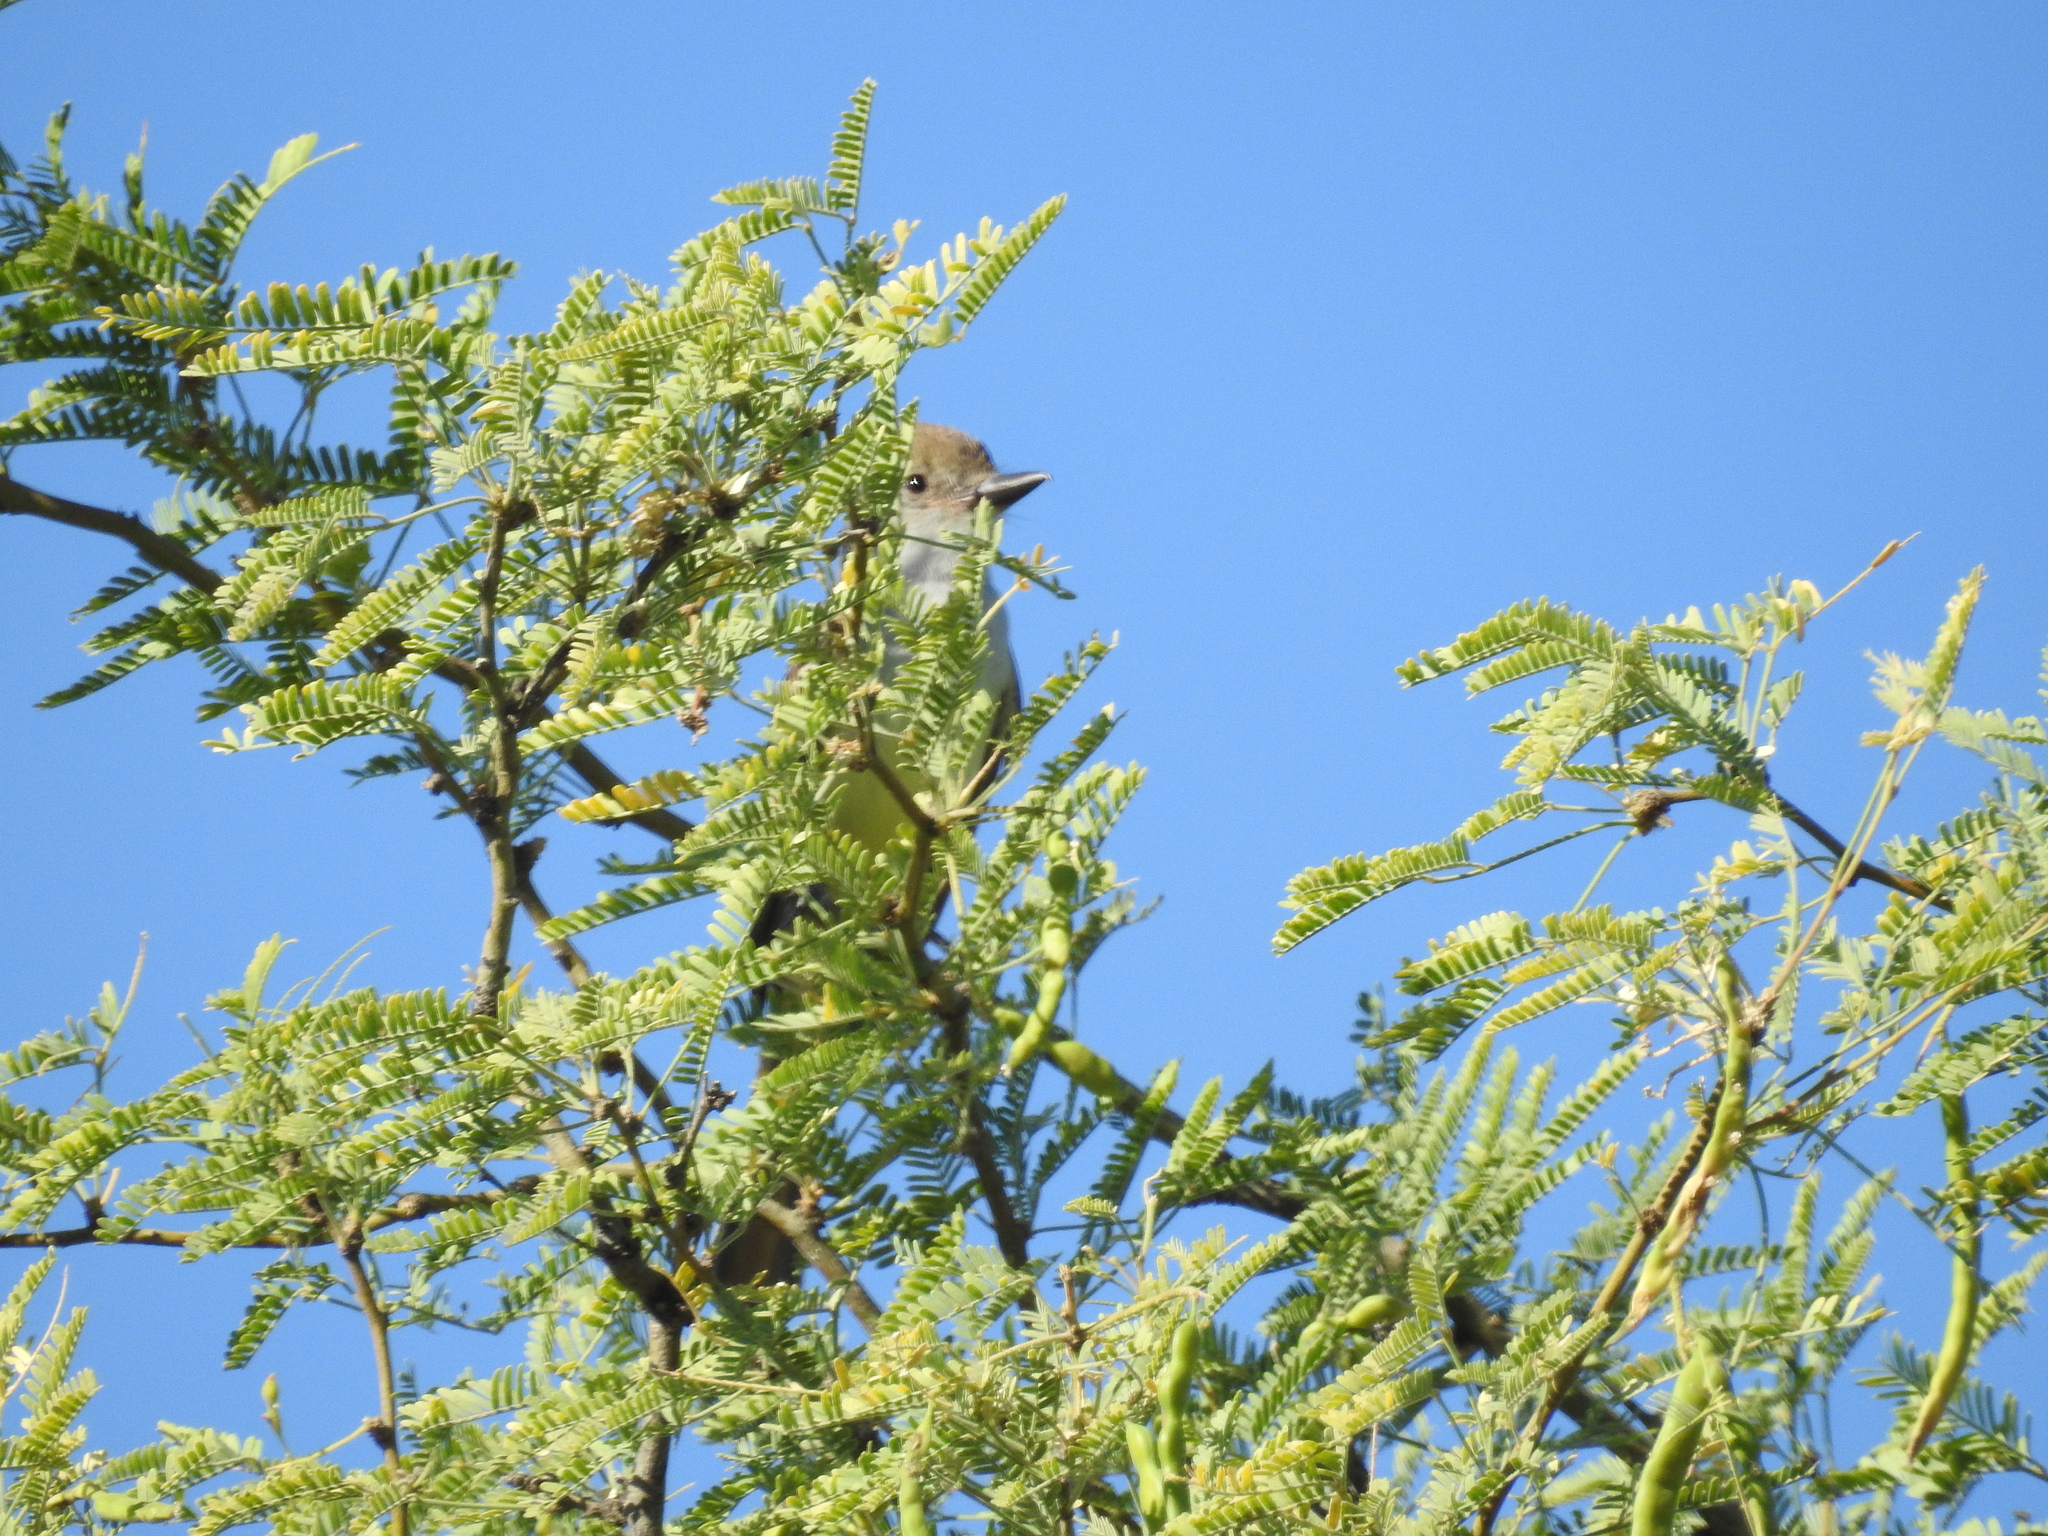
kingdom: Animalia
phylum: Chordata
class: Aves
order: Passeriformes
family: Tyrannidae
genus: Myiarchus
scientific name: Myiarchus tyrannulus
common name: Brown-crested flycatcher
